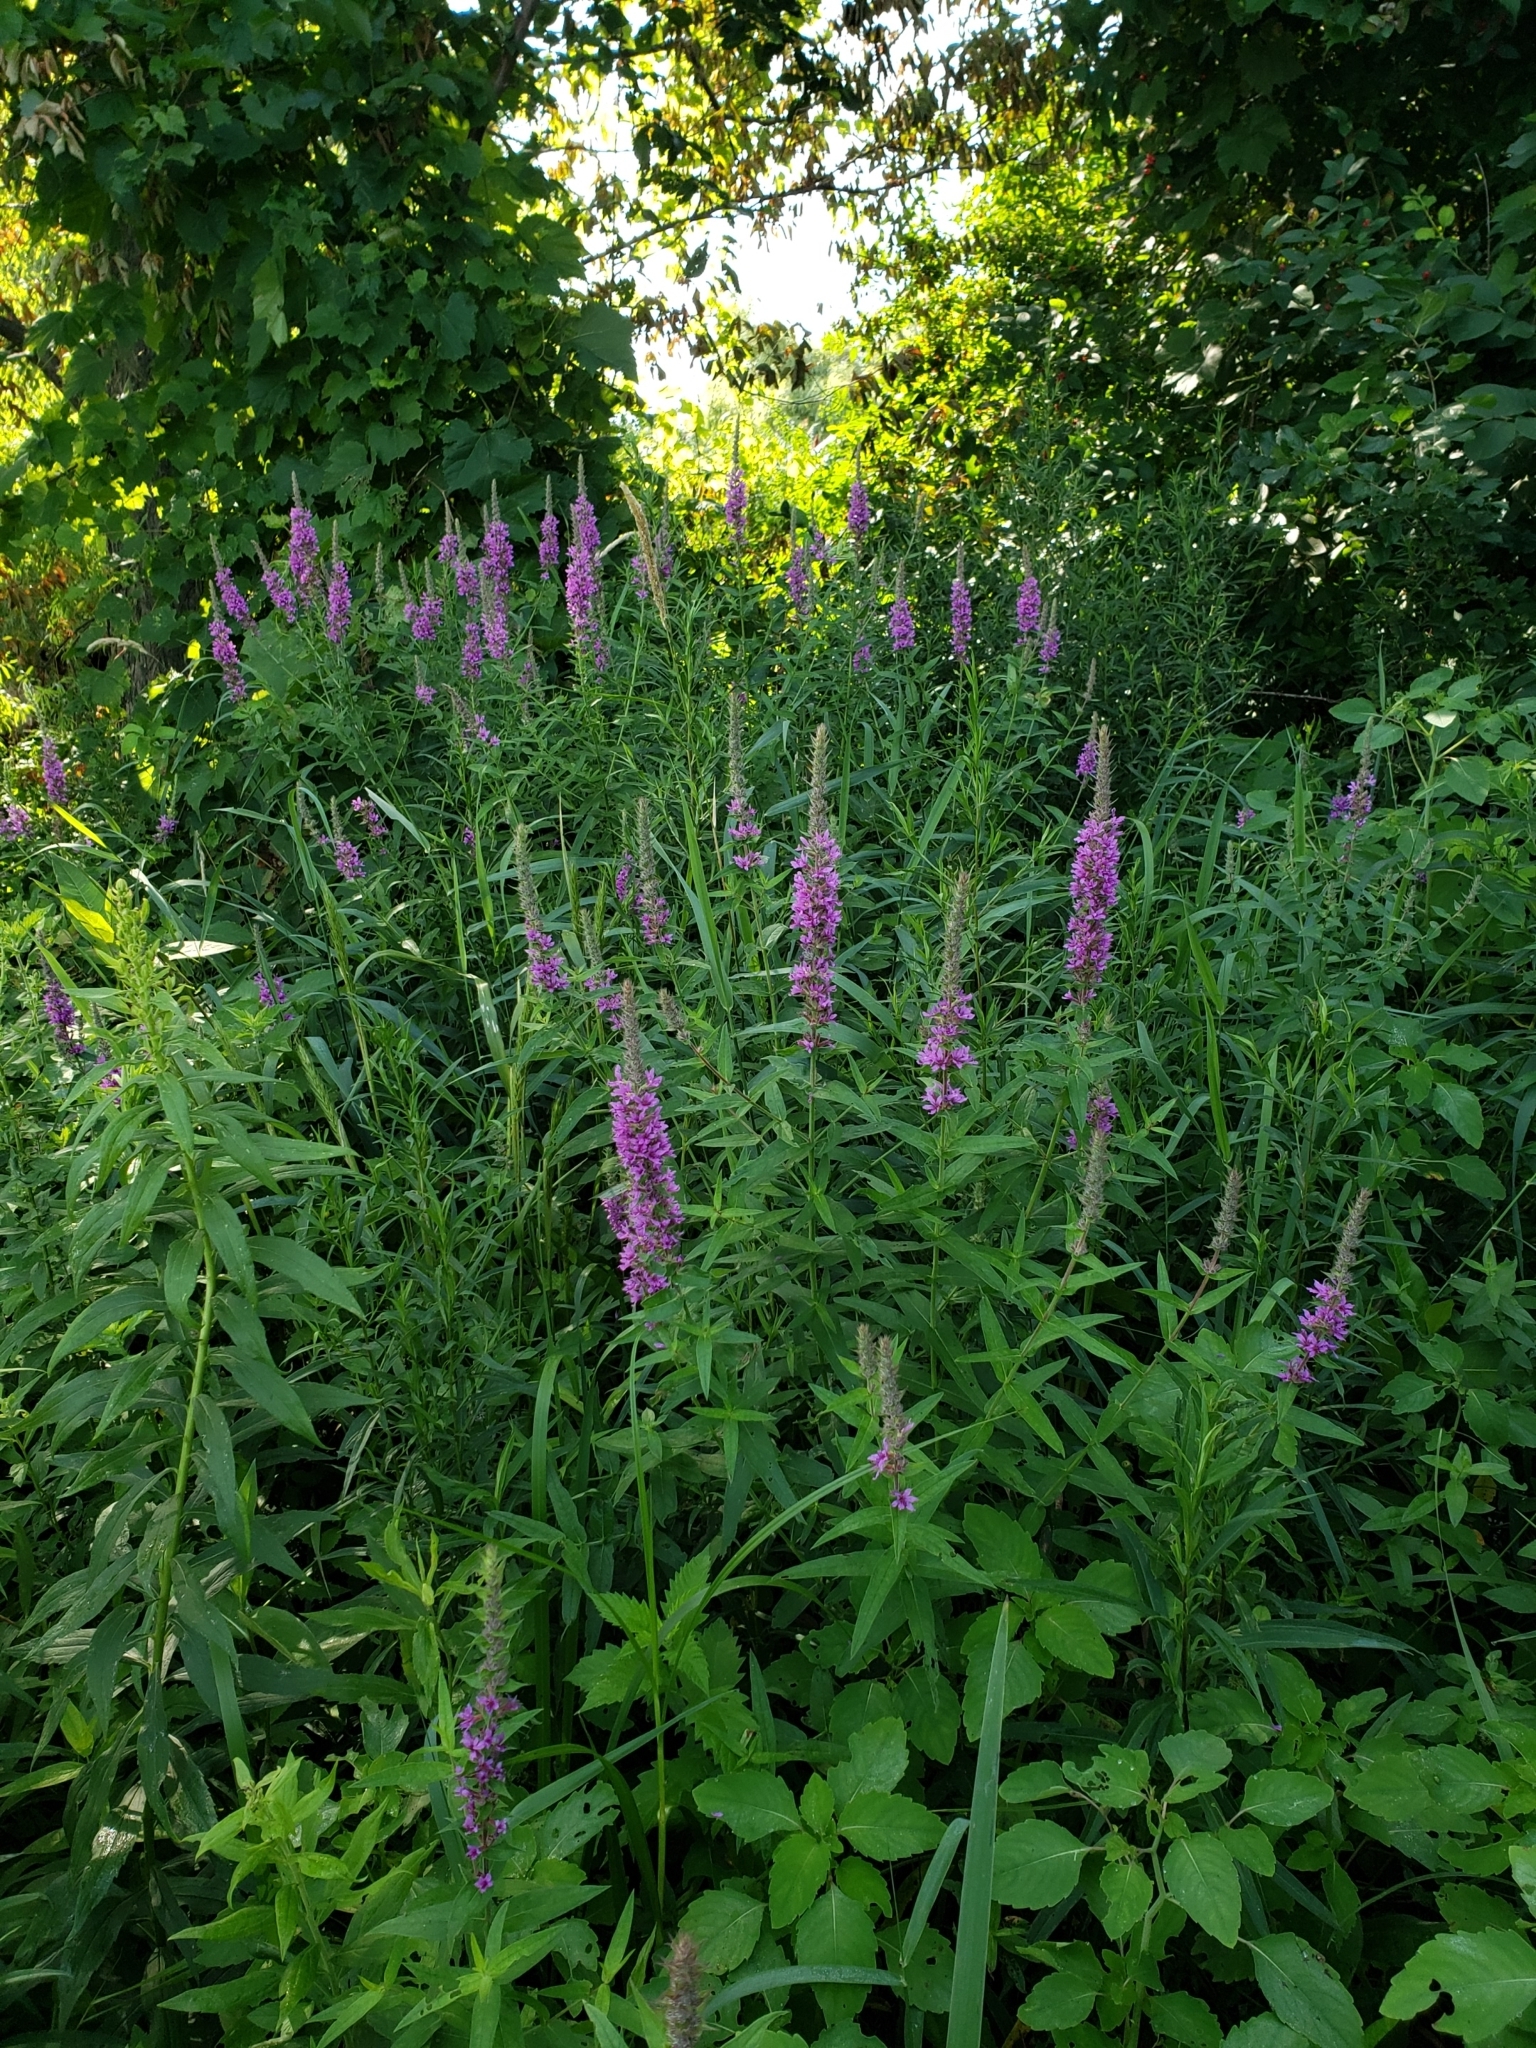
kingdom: Plantae
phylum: Tracheophyta
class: Magnoliopsida
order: Myrtales
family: Lythraceae
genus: Lythrum
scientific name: Lythrum salicaria
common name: Purple loosestrife
